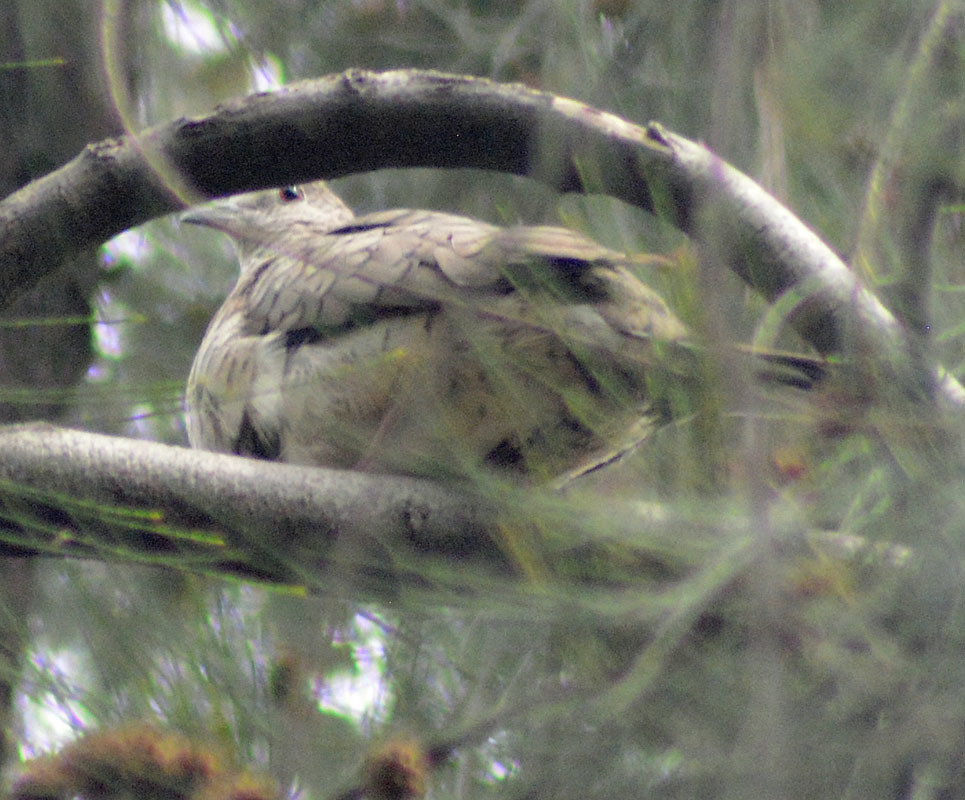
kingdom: Animalia
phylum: Chordata
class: Aves
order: Columbiformes
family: Columbidae
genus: Columbina
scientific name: Columbina inca
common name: Inca dove
